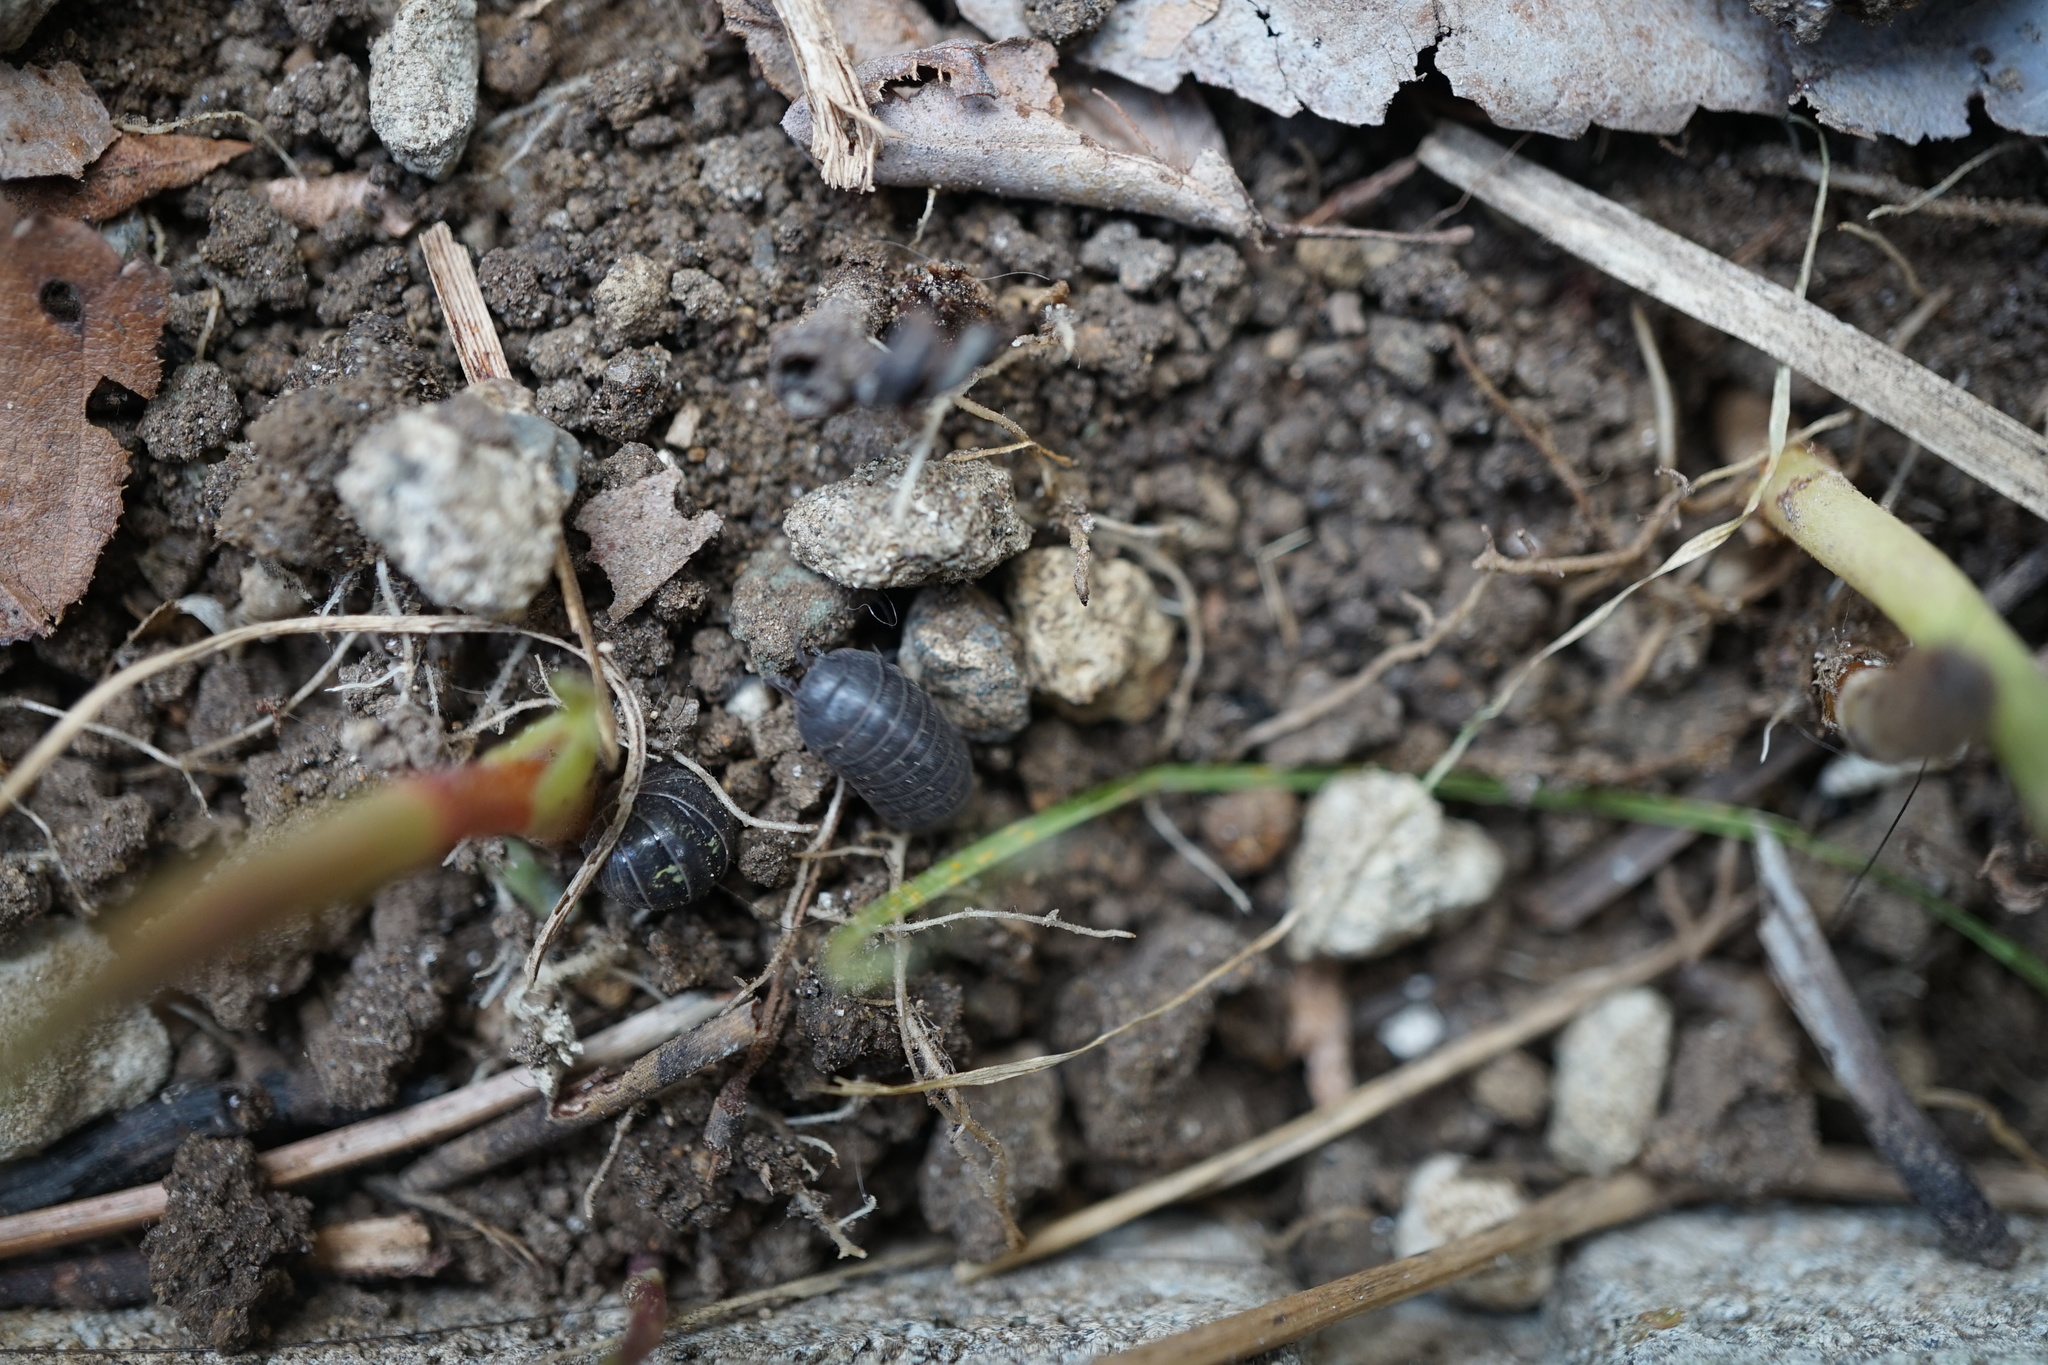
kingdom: Animalia
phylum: Arthropoda
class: Malacostraca
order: Isopoda
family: Armadillidiidae
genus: Armadillidium
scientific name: Armadillidium vulgare
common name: Common pill woodlouse
